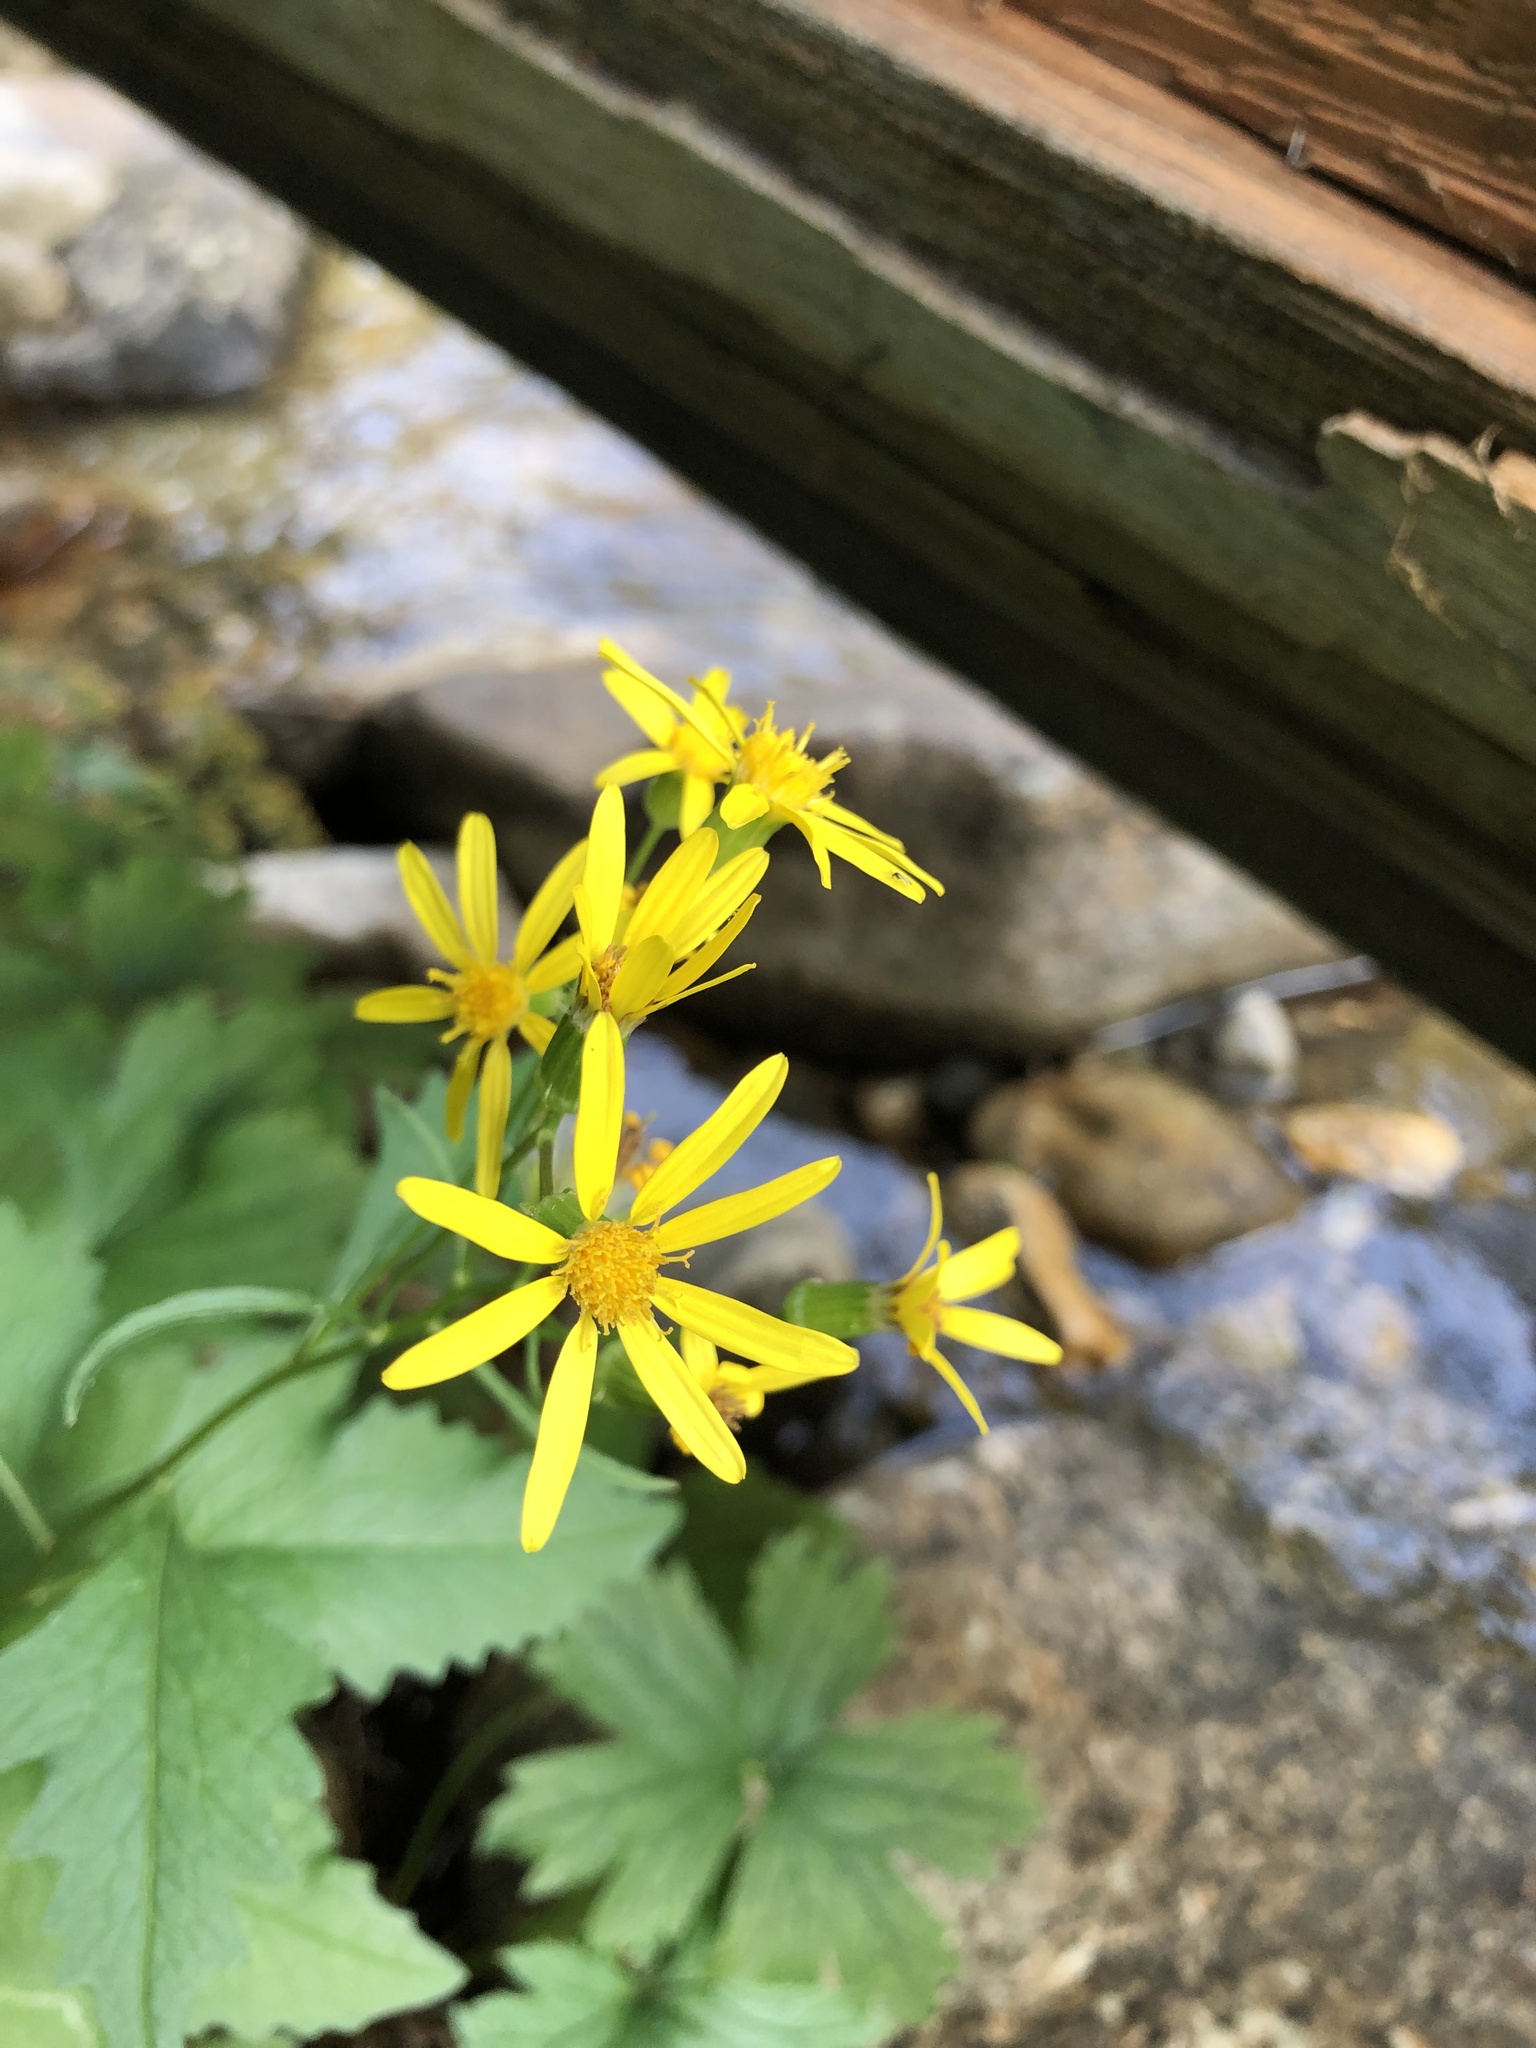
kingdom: Plantae
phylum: Tracheophyta
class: Magnoliopsida
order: Asterales
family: Asteraceae
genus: Senecio
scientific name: Senecio triangularis
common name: Arrowleaf butterweed
